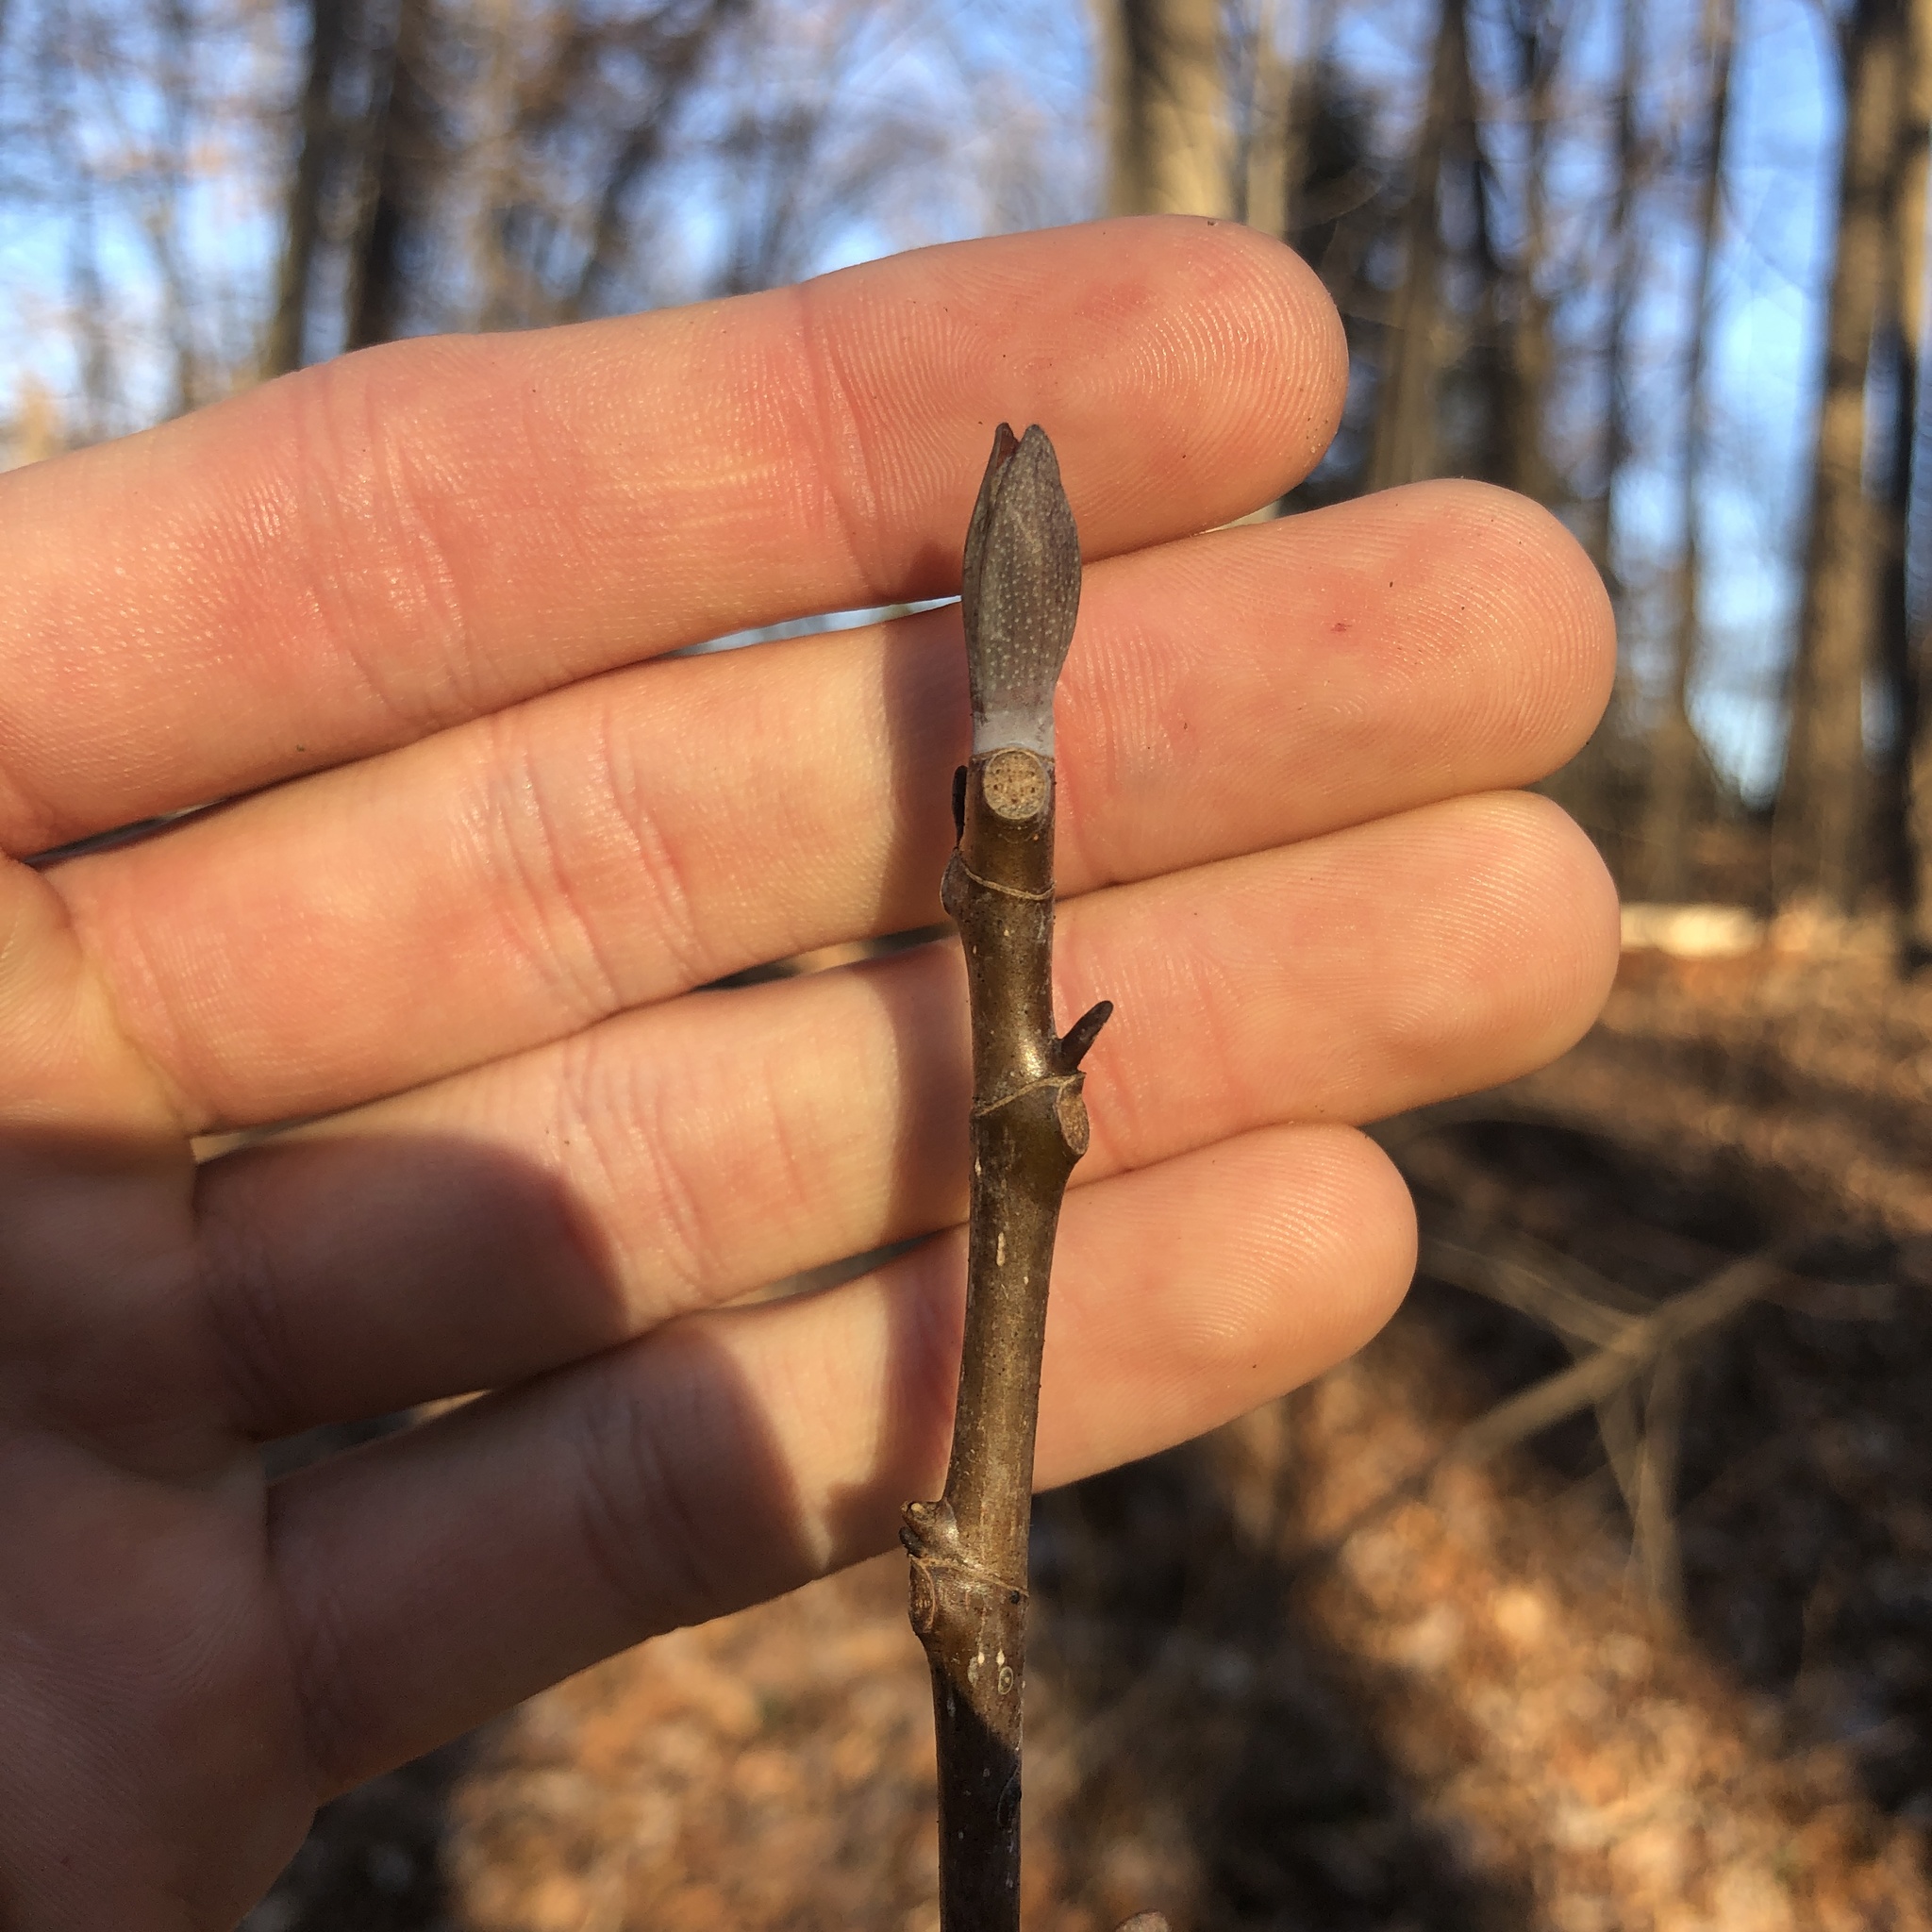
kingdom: Plantae
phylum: Tracheophyta
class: Magnoliopsida
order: Magnoliales
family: Magnoliaceae
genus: Liriodendron
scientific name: Liriodendron tulipifera
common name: Tulip tree
